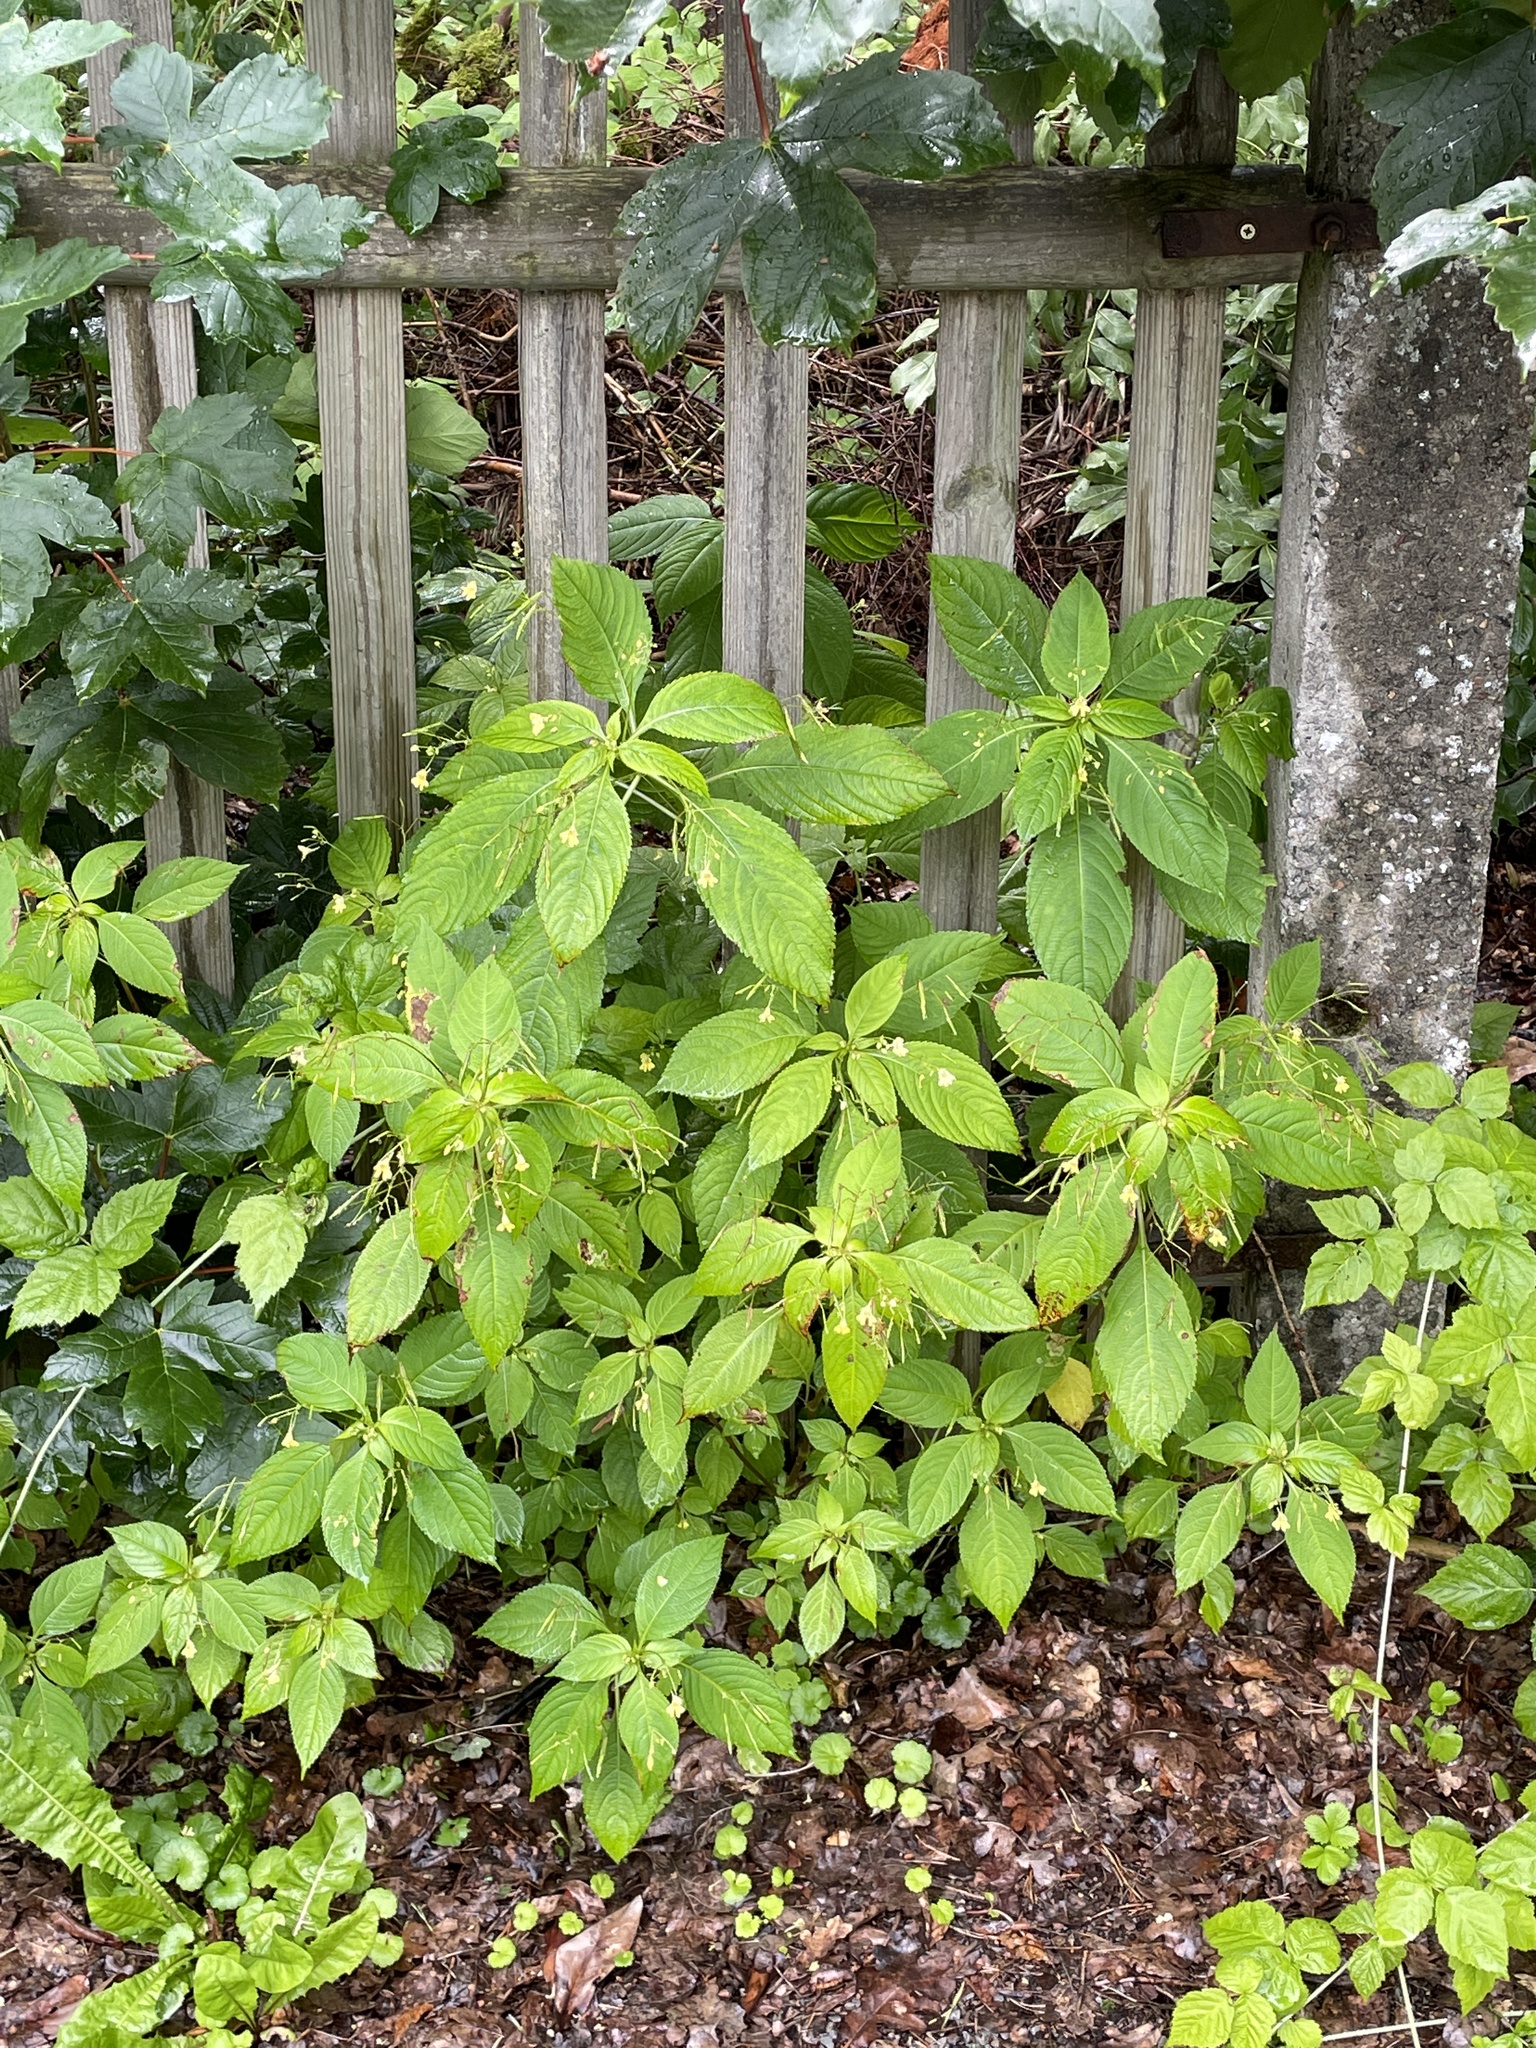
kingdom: Plantae
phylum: Tracheophyta
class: Magnoliopsida
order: Ericales
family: Balsaminaceae
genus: Impatiens
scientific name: Impatiens parviflora
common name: Small balsam
